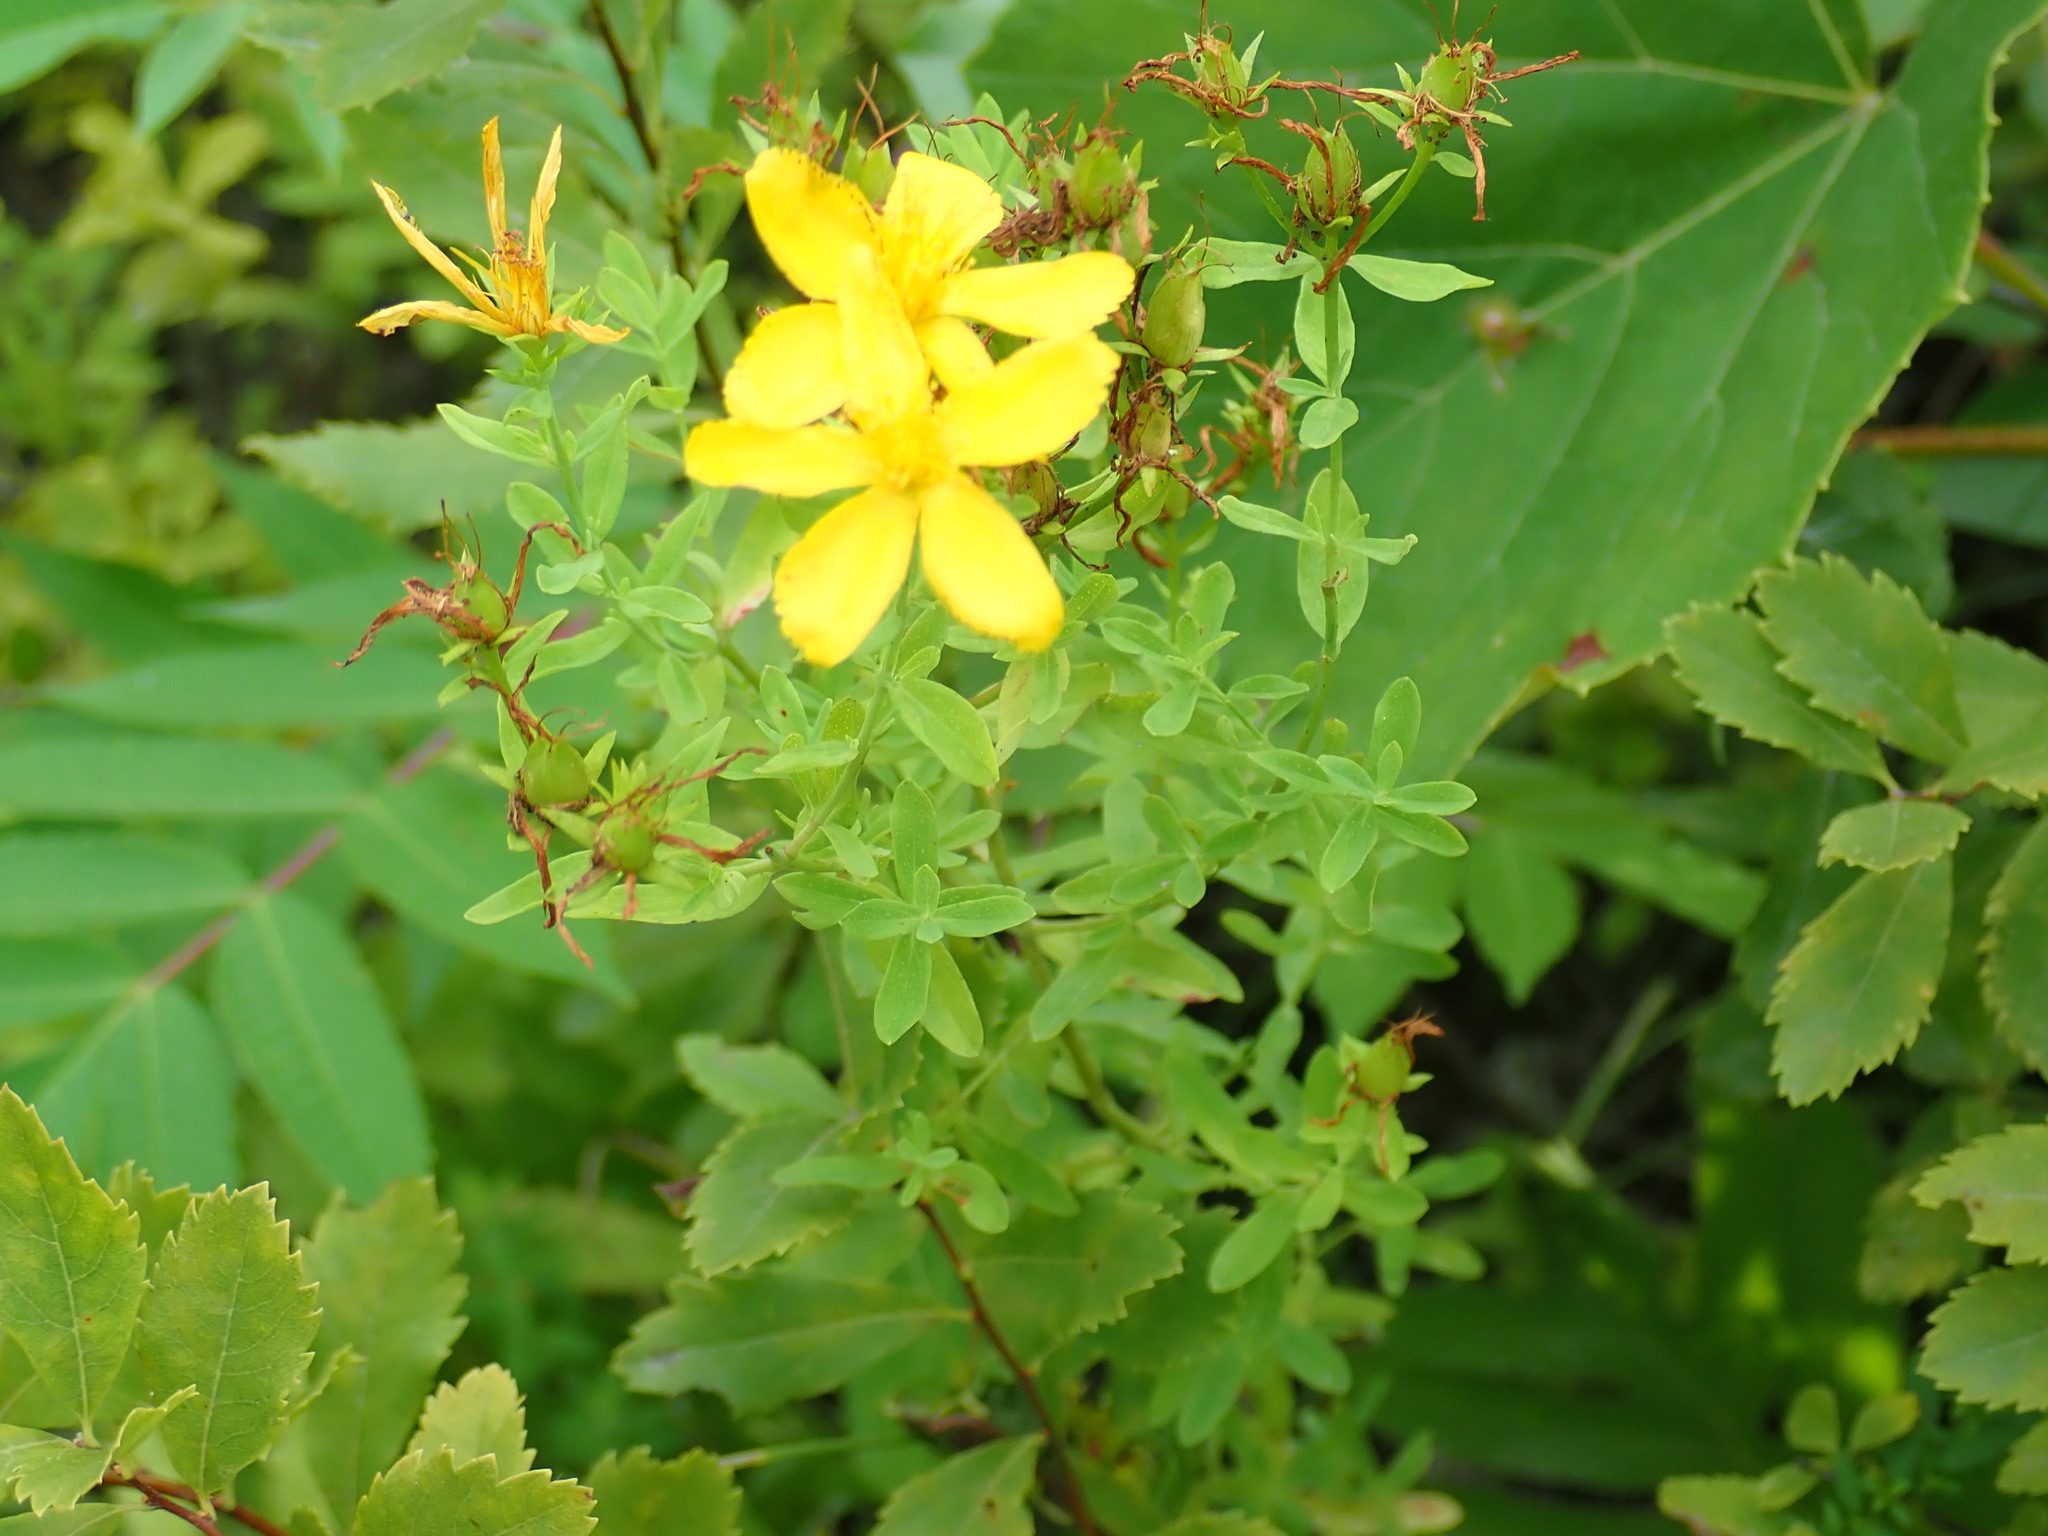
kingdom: Plantae
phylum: Tracheophyta
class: Magnoliopsida
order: Malpighiales
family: Hypericaceae
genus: Hypericum
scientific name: Hypericum perforatum
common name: Common st. johnswort
